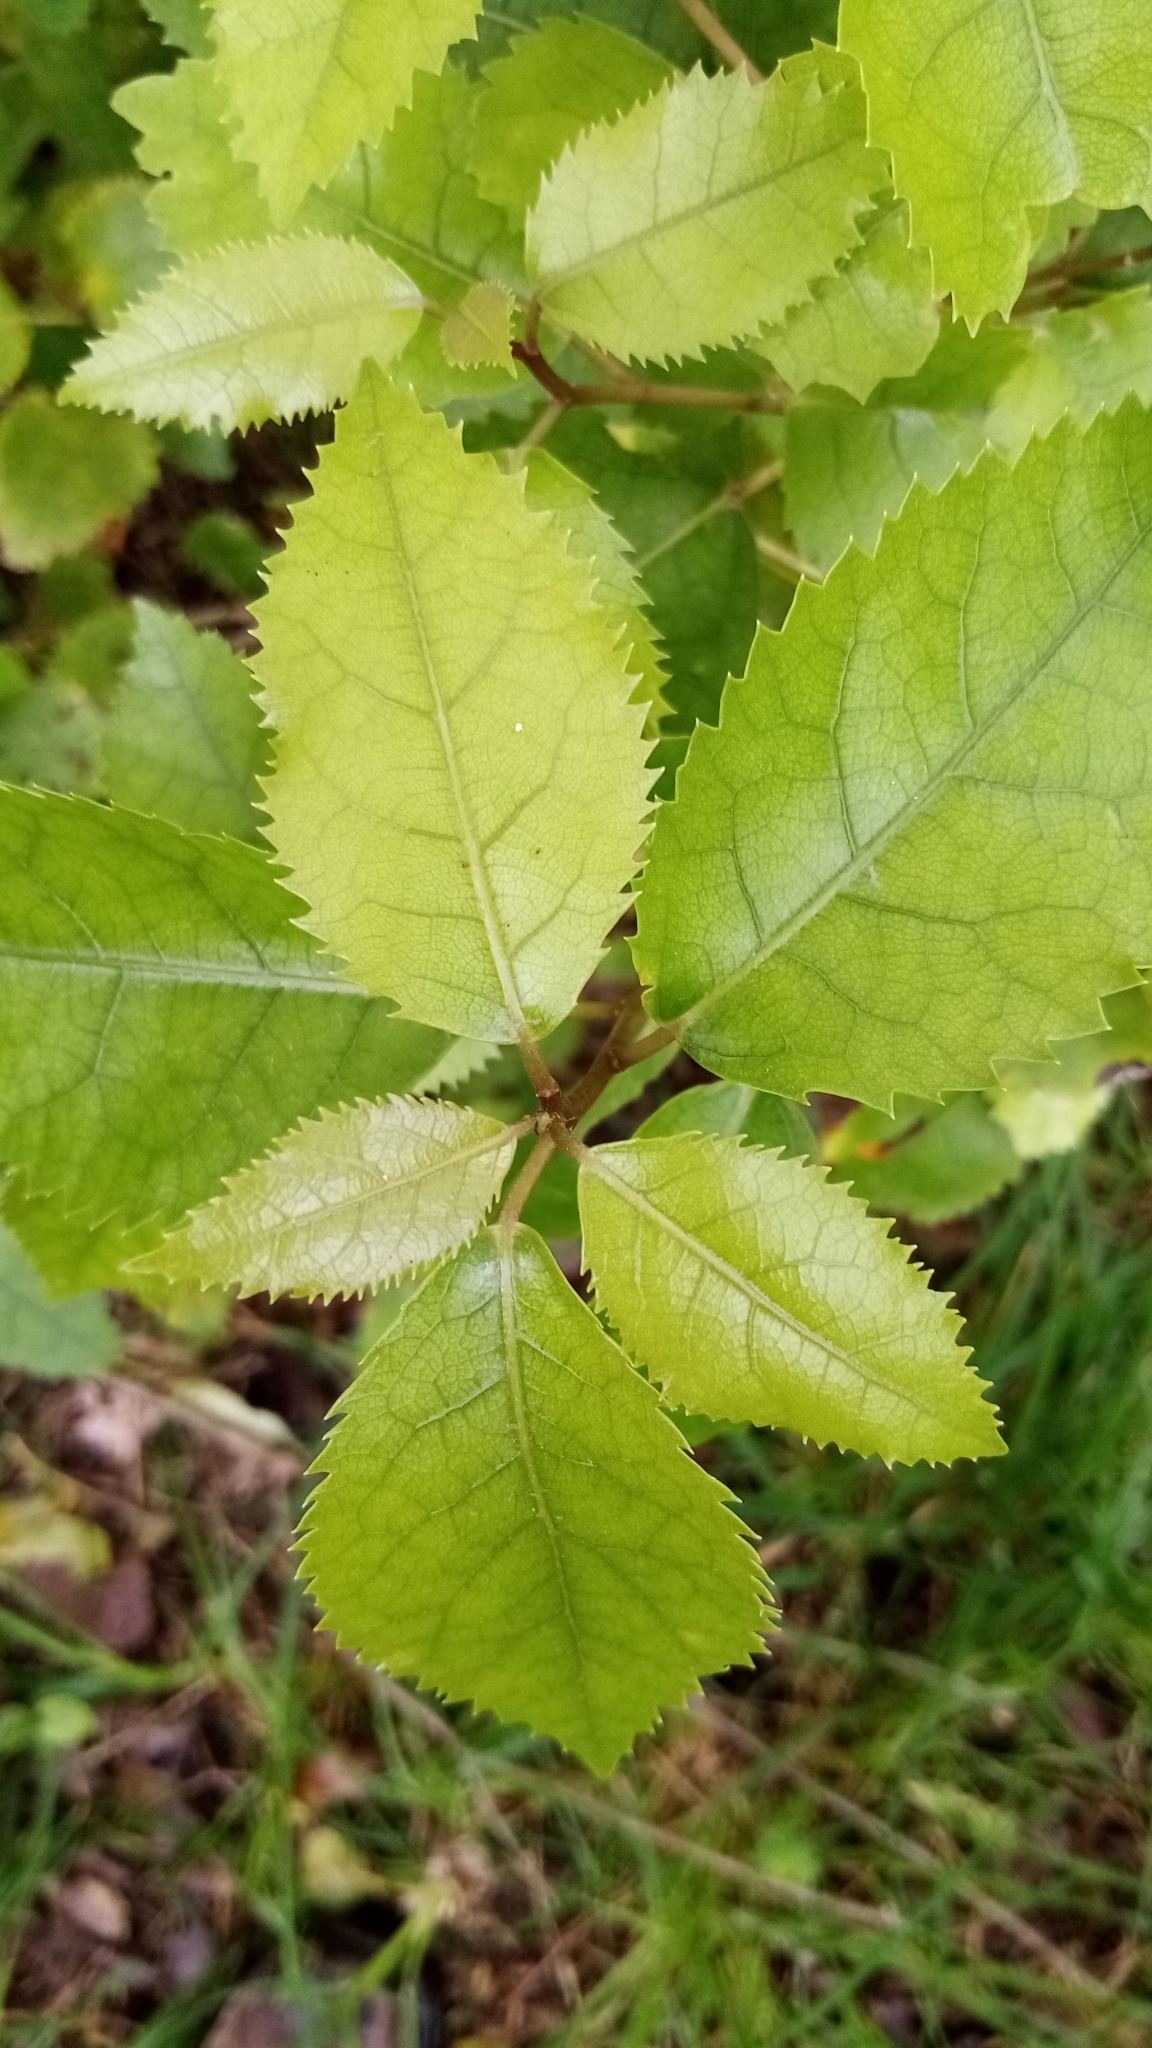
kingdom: Plantae
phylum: Tracheophyta
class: Magnoliopsida
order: Malvales
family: Malvaceae
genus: Hoheria
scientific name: Hoheria populnea
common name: Lacebark
